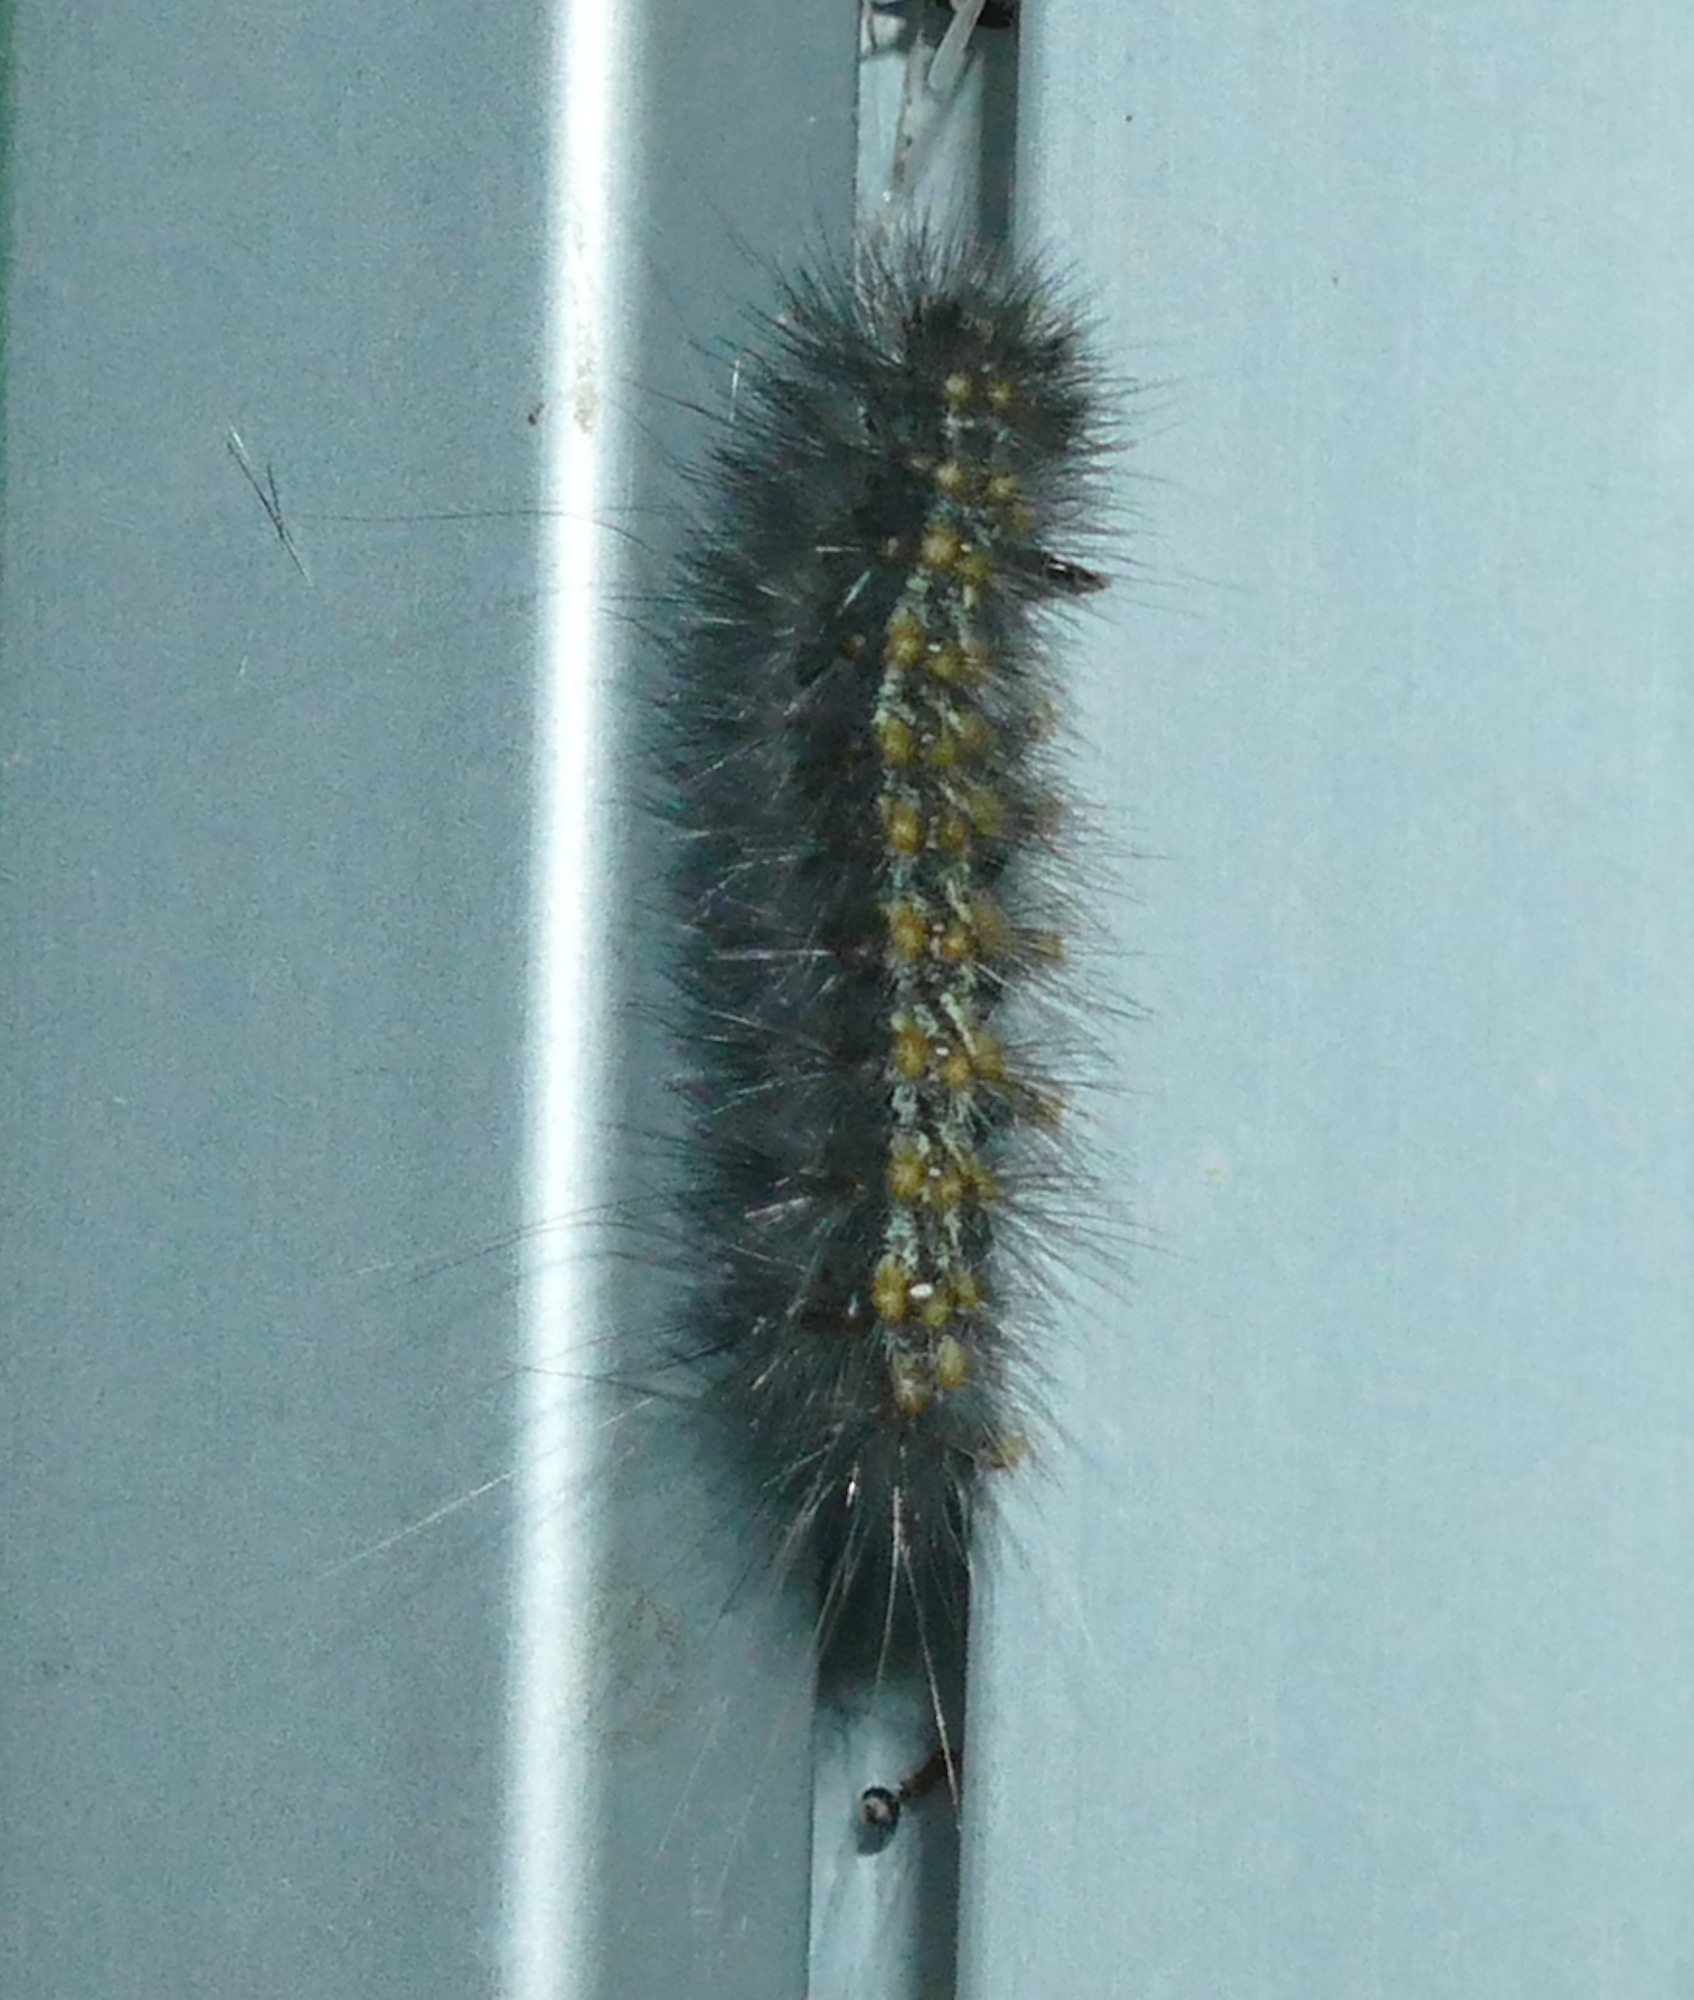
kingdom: Animalia
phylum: Arthropoda
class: Insecta
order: Lepidoptera
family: Erebidae
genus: Estigmene
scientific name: Estigmene acrea
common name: Salt marsh moth
